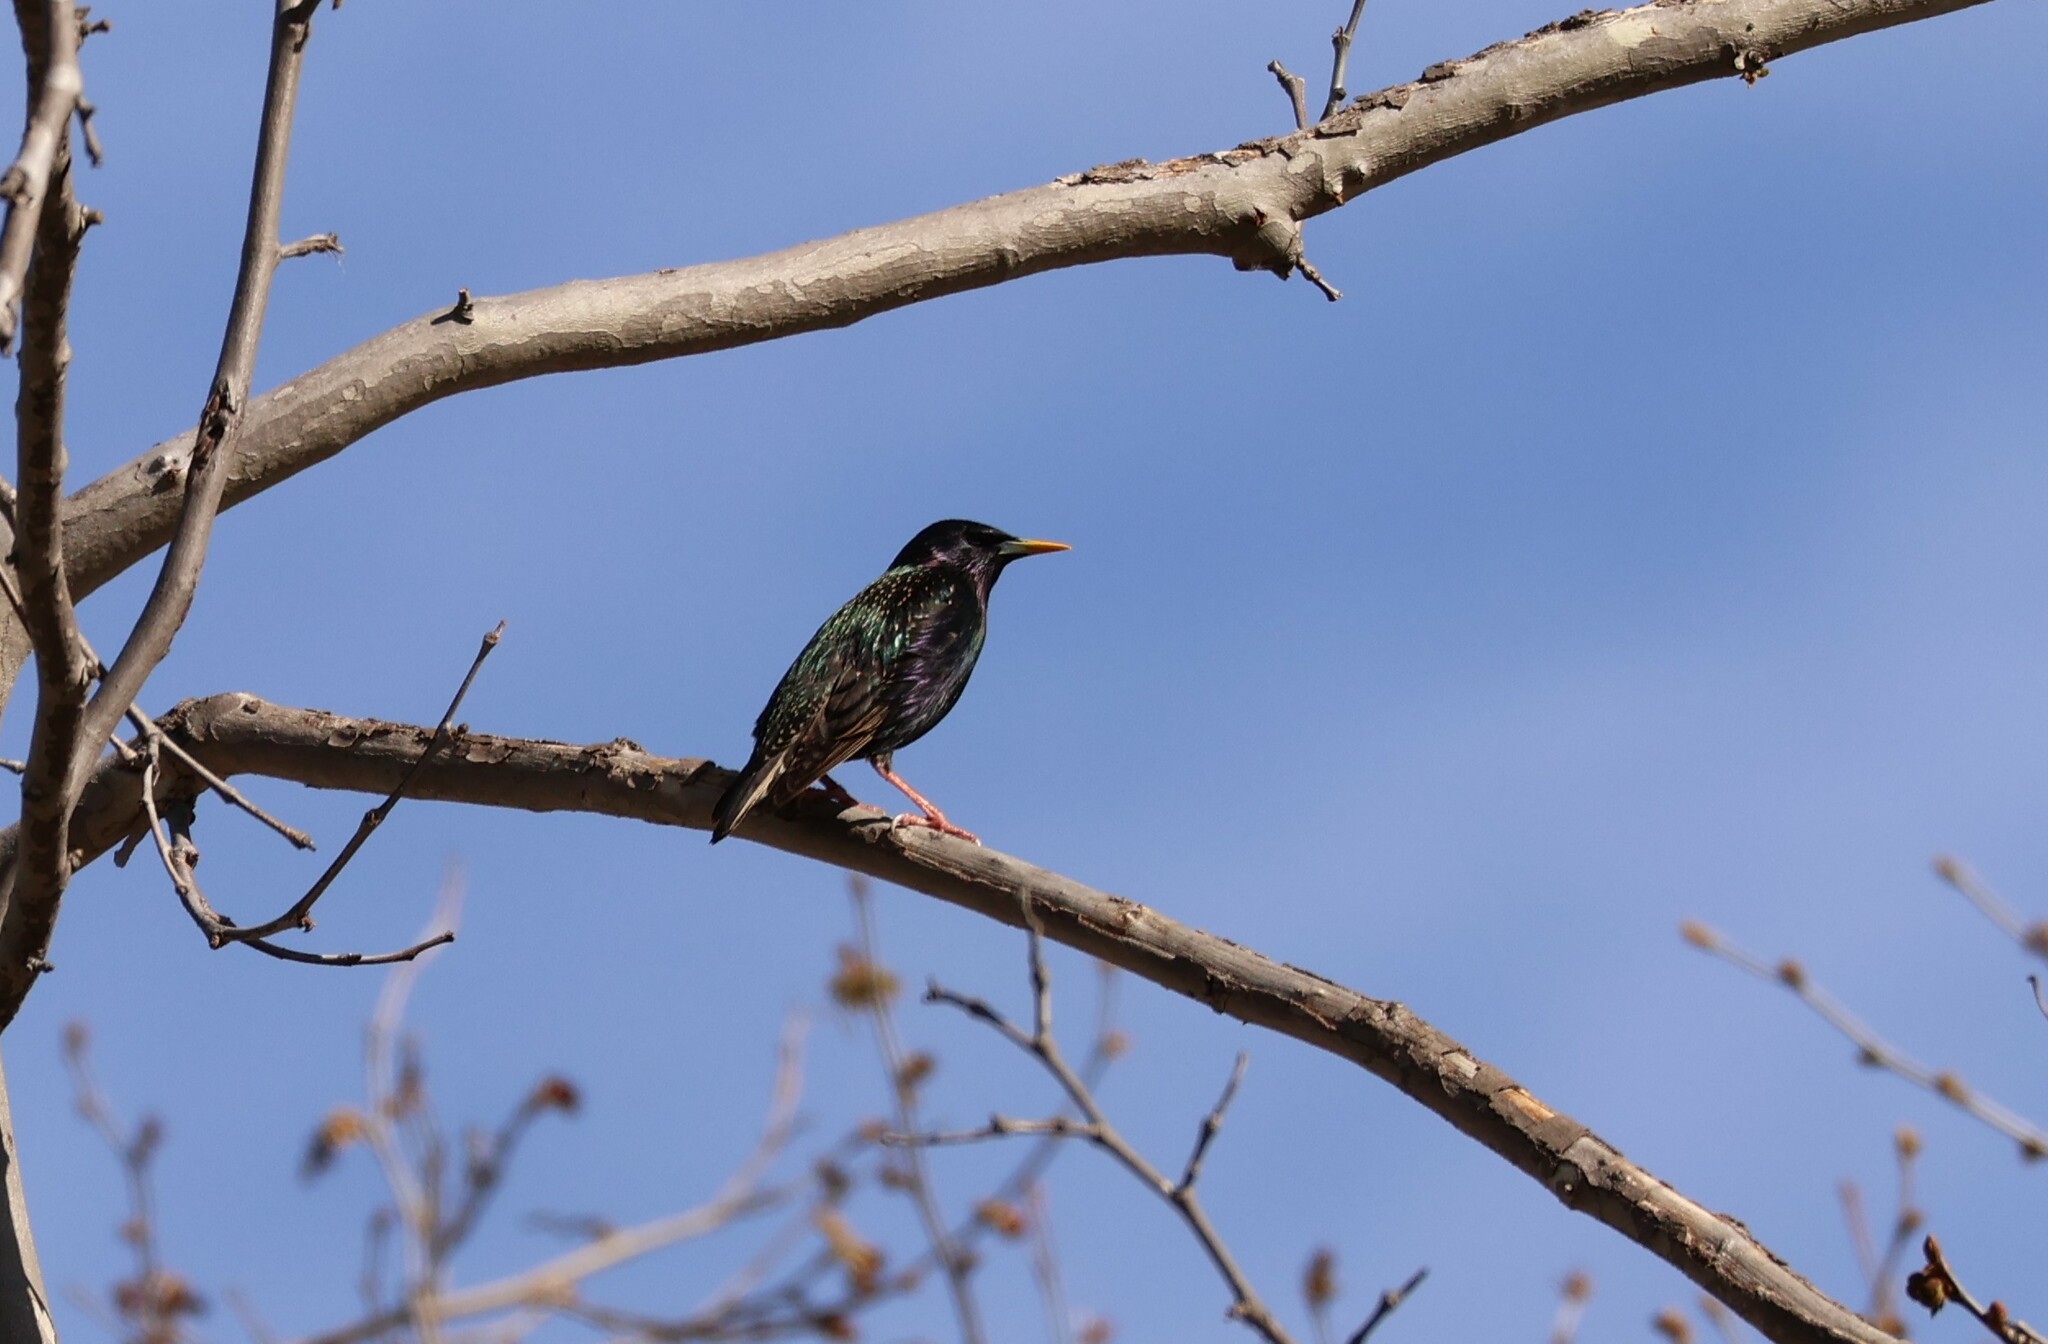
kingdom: Animalia
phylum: Chordata
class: Aves
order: Passeriformes
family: Sturnidae
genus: Sturnus
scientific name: Sturnus vulgaris
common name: Common starling
